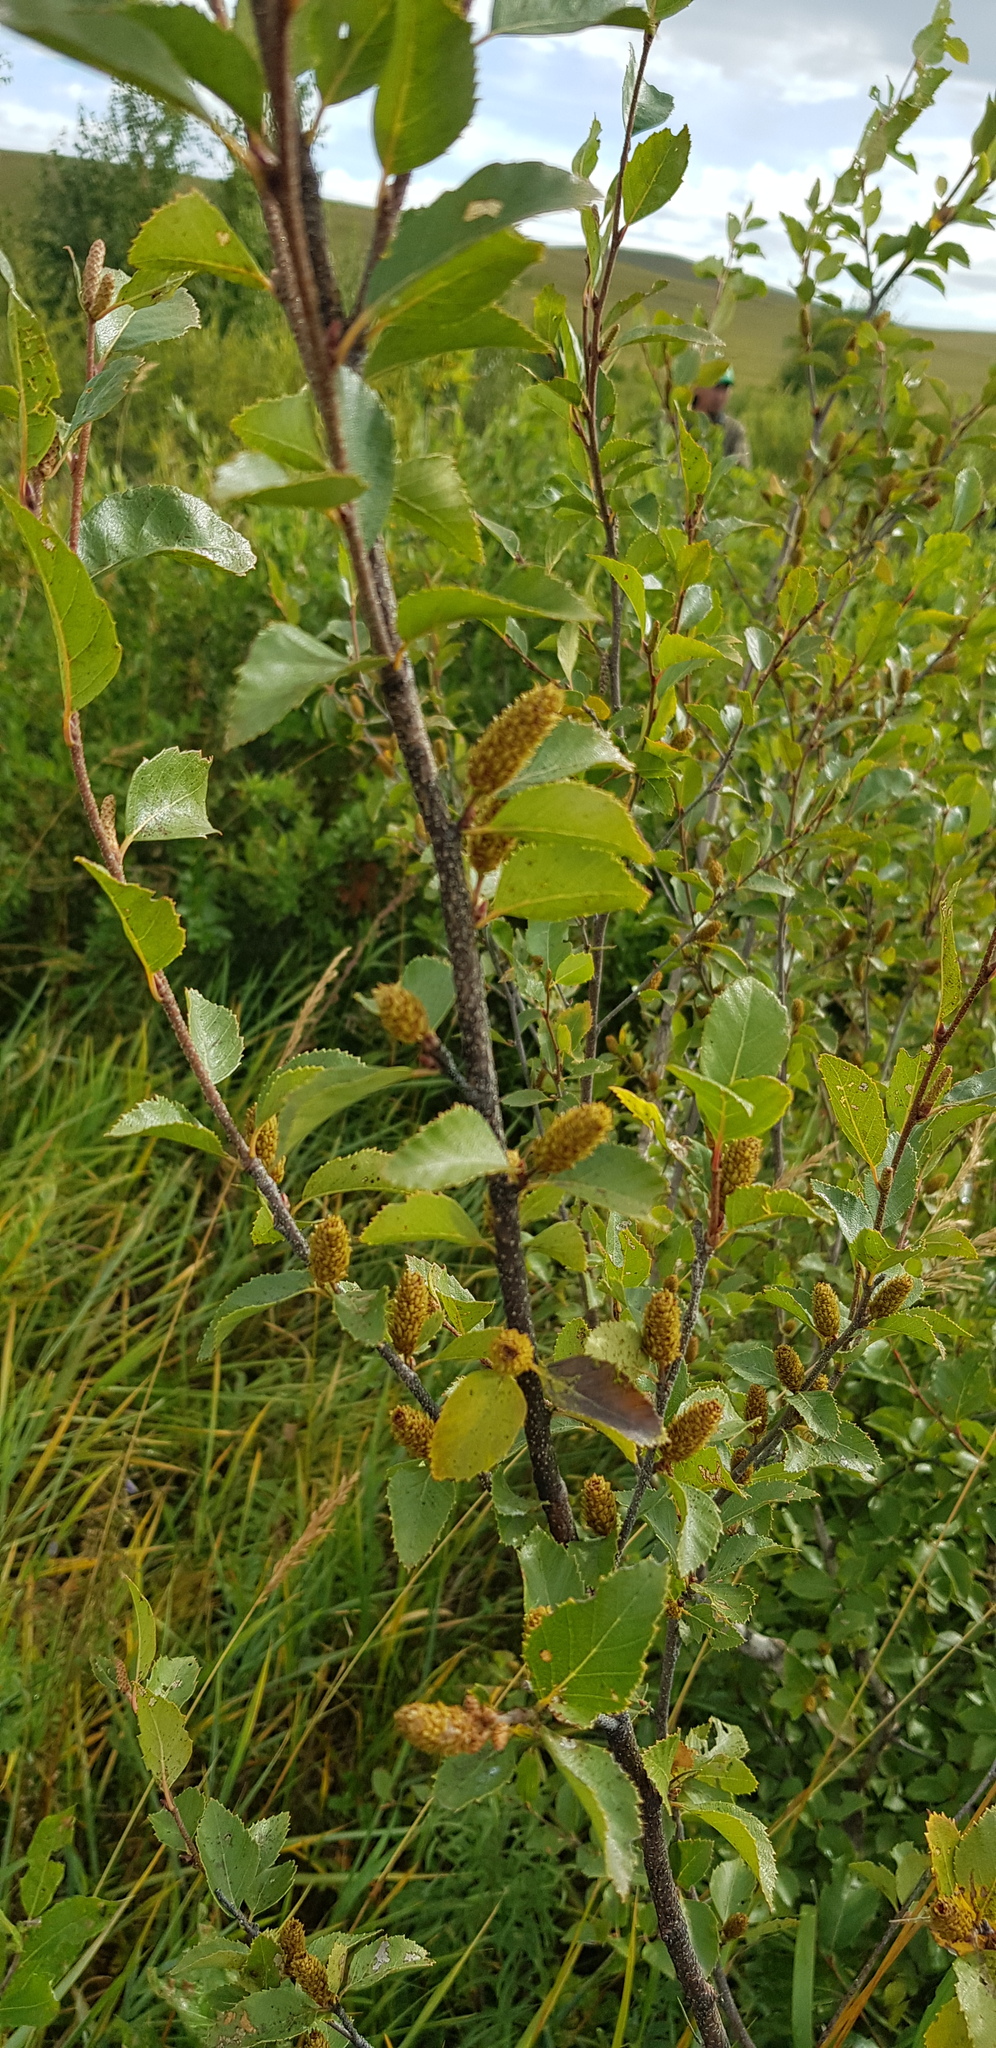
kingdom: Plantae
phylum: Tracheophyta
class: Magnoliopsida
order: Fagales
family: Betulaceae
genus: Betula
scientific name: Betula fruticosa
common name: Japanese bog birch
